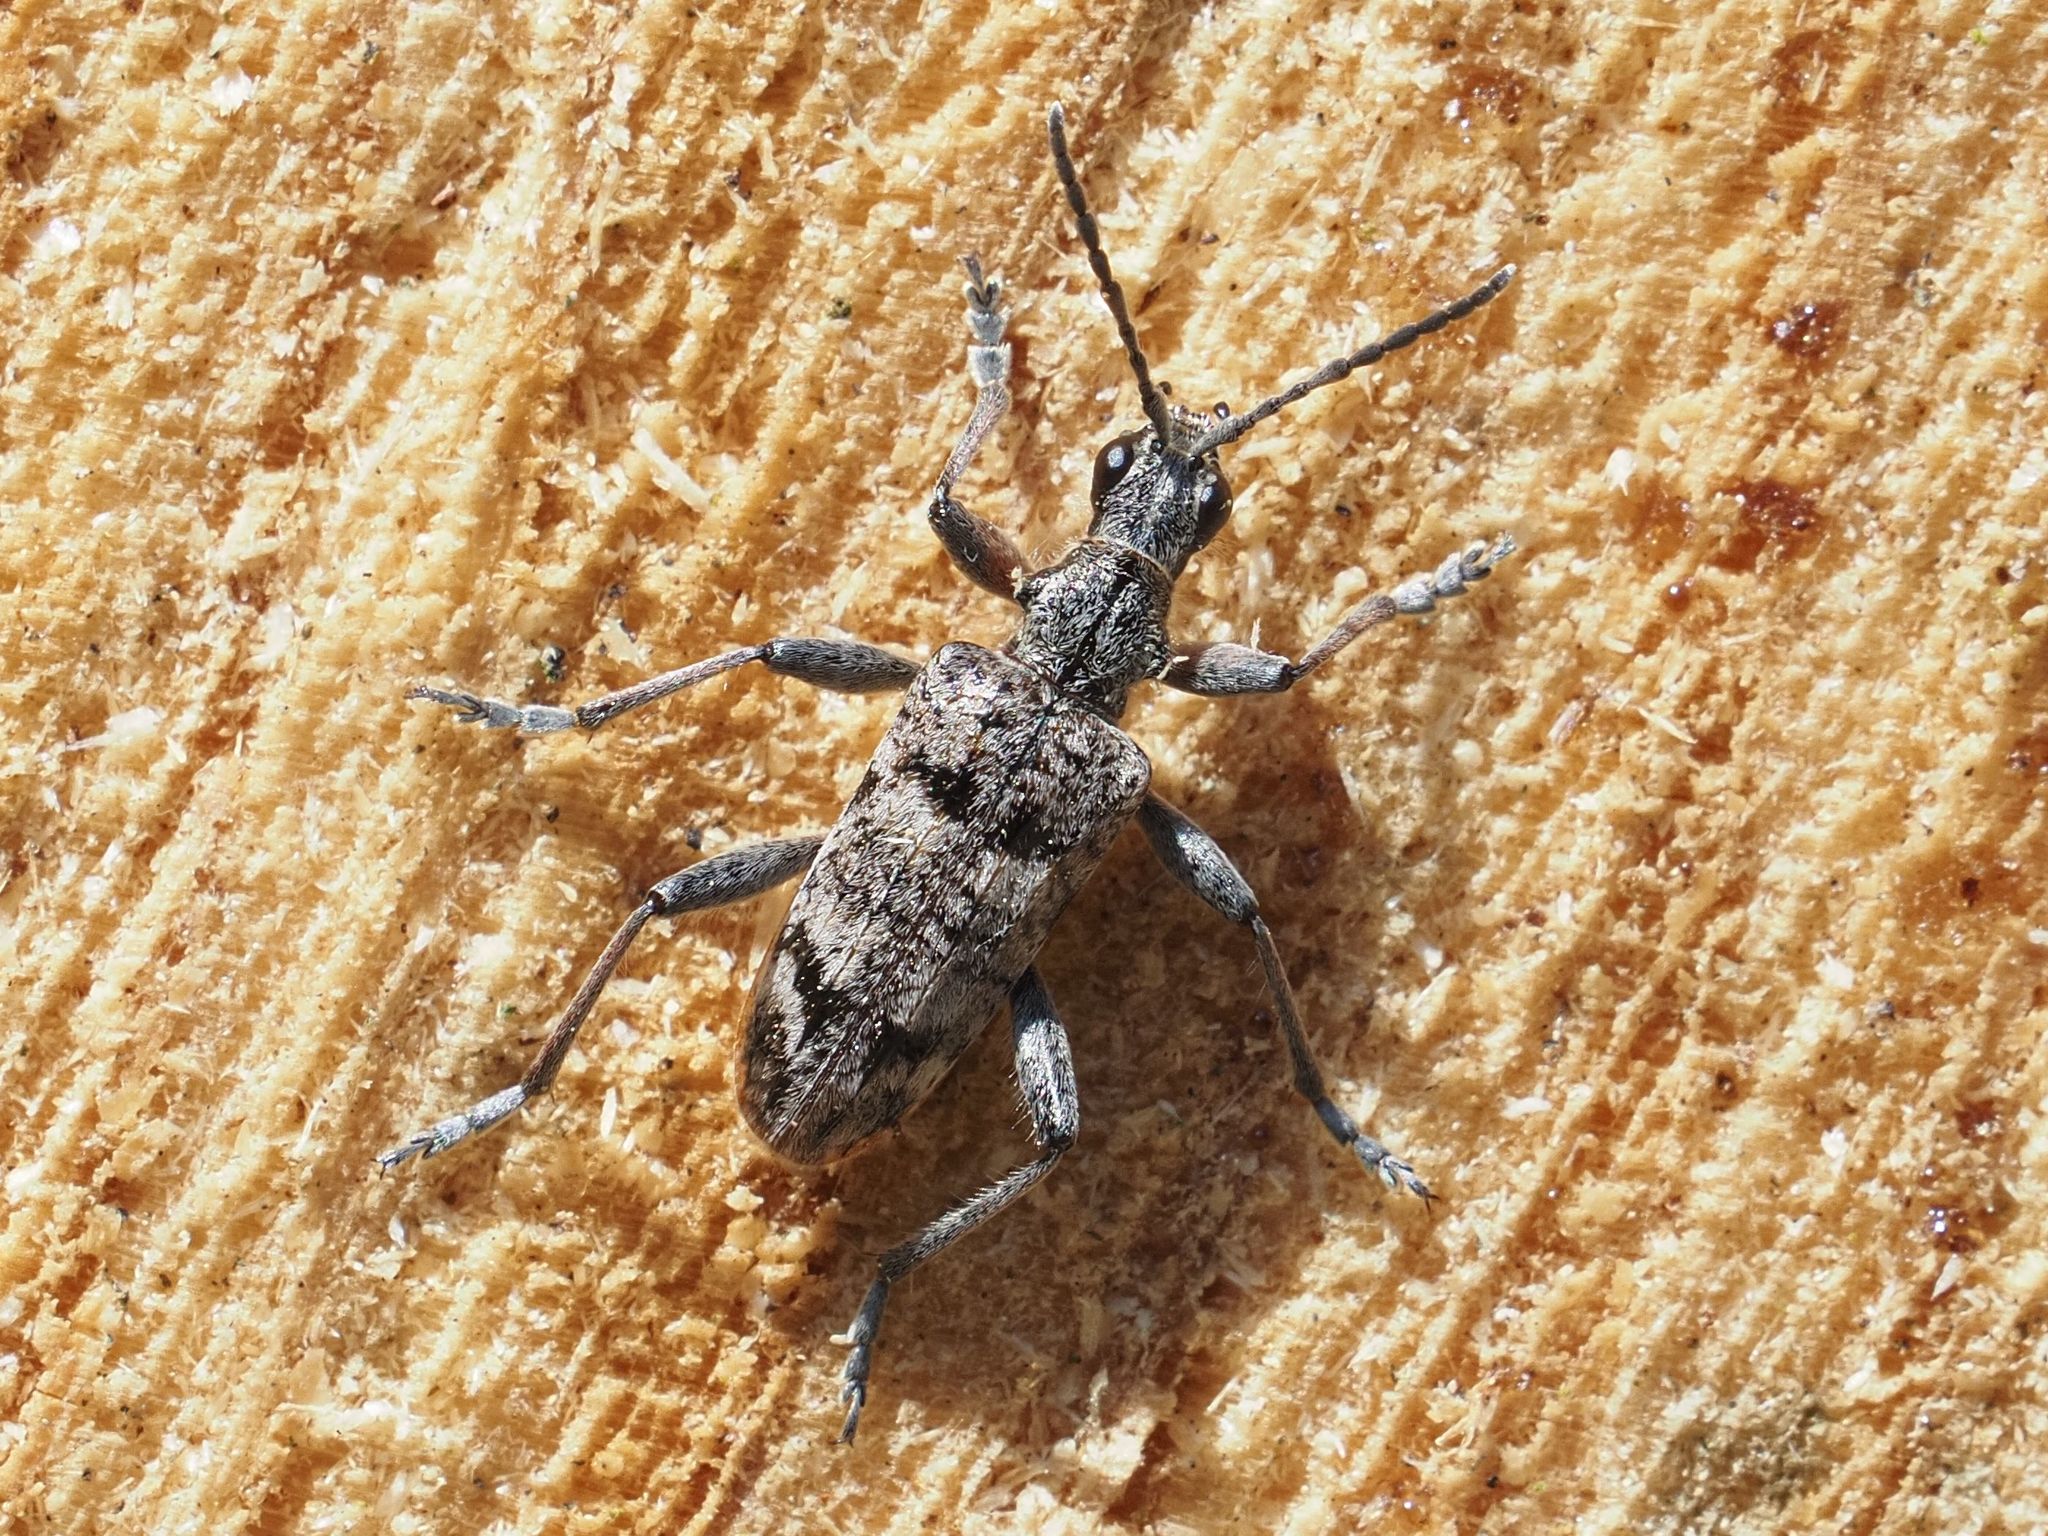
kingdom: Animalia
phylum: Arthropoda
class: Insecta
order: Coleoptera
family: Cerambycidae
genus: Rhagium
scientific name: Rhagium inquisitor
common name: Ribbed pine borer
